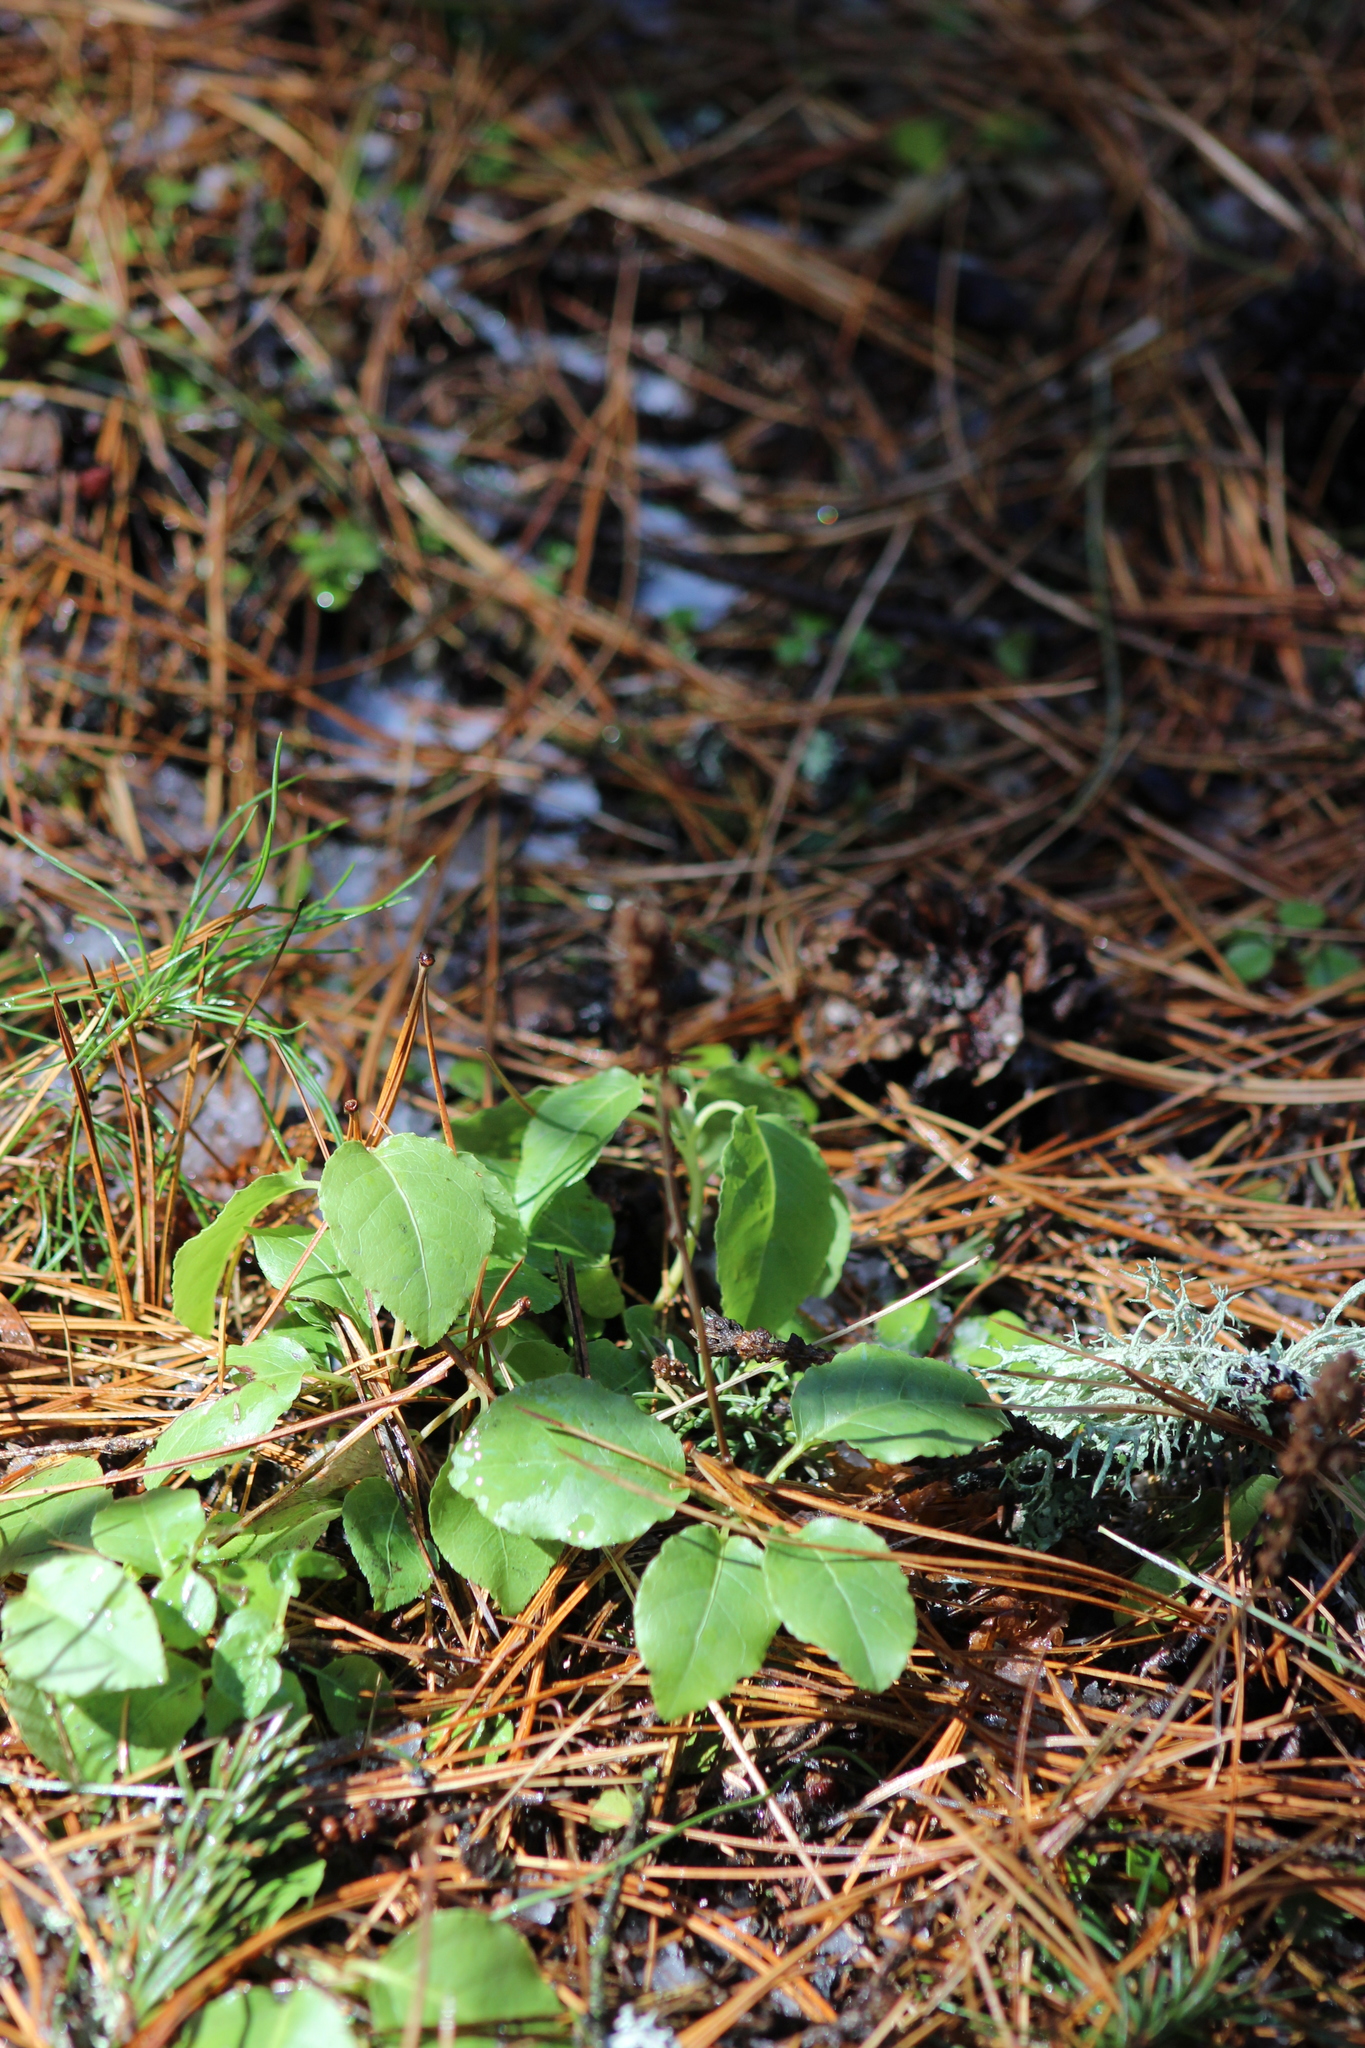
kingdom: Plantae
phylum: Tracheophyta
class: Magnoliopsida
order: Ericales
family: Ericaceae
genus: Orthilia
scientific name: Orthilia secunda
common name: One-sided orthilia
